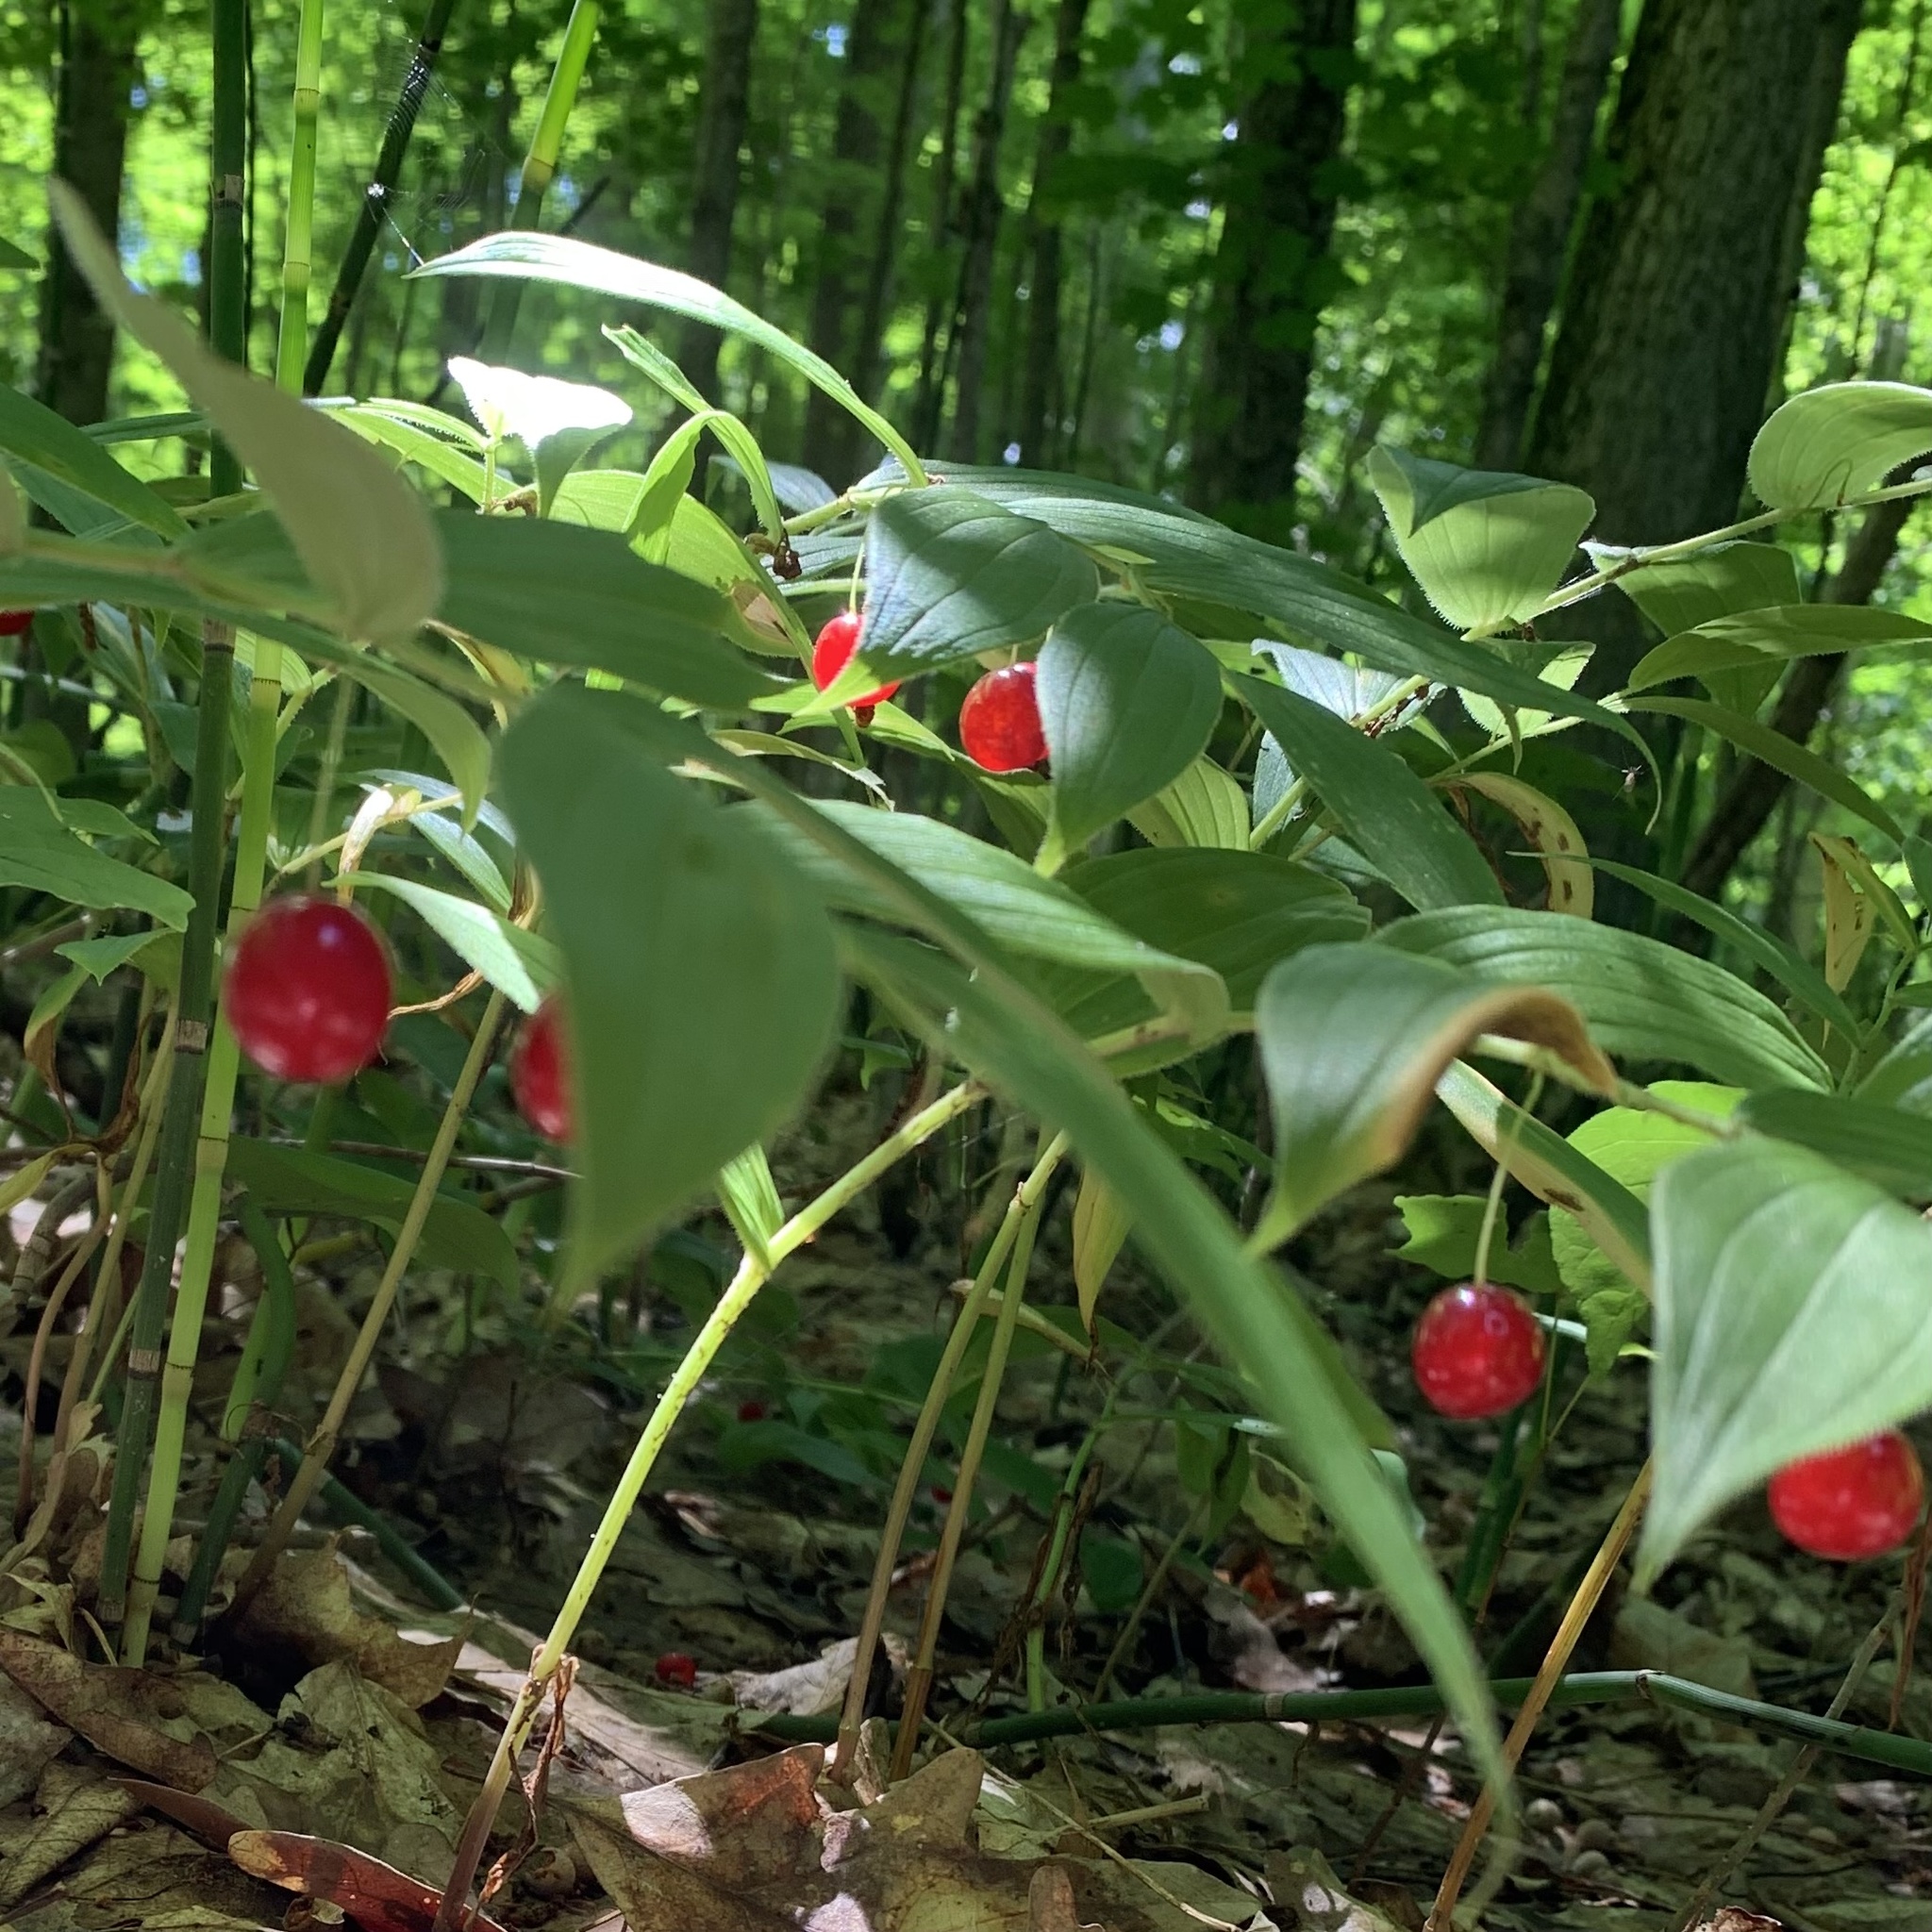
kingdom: Plantae
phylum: Tracheophyta
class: Liliopsida
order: Liliales
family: Liliaceae
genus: Streptopus
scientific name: Streptopus lanceolatus
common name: Rose mandarin
